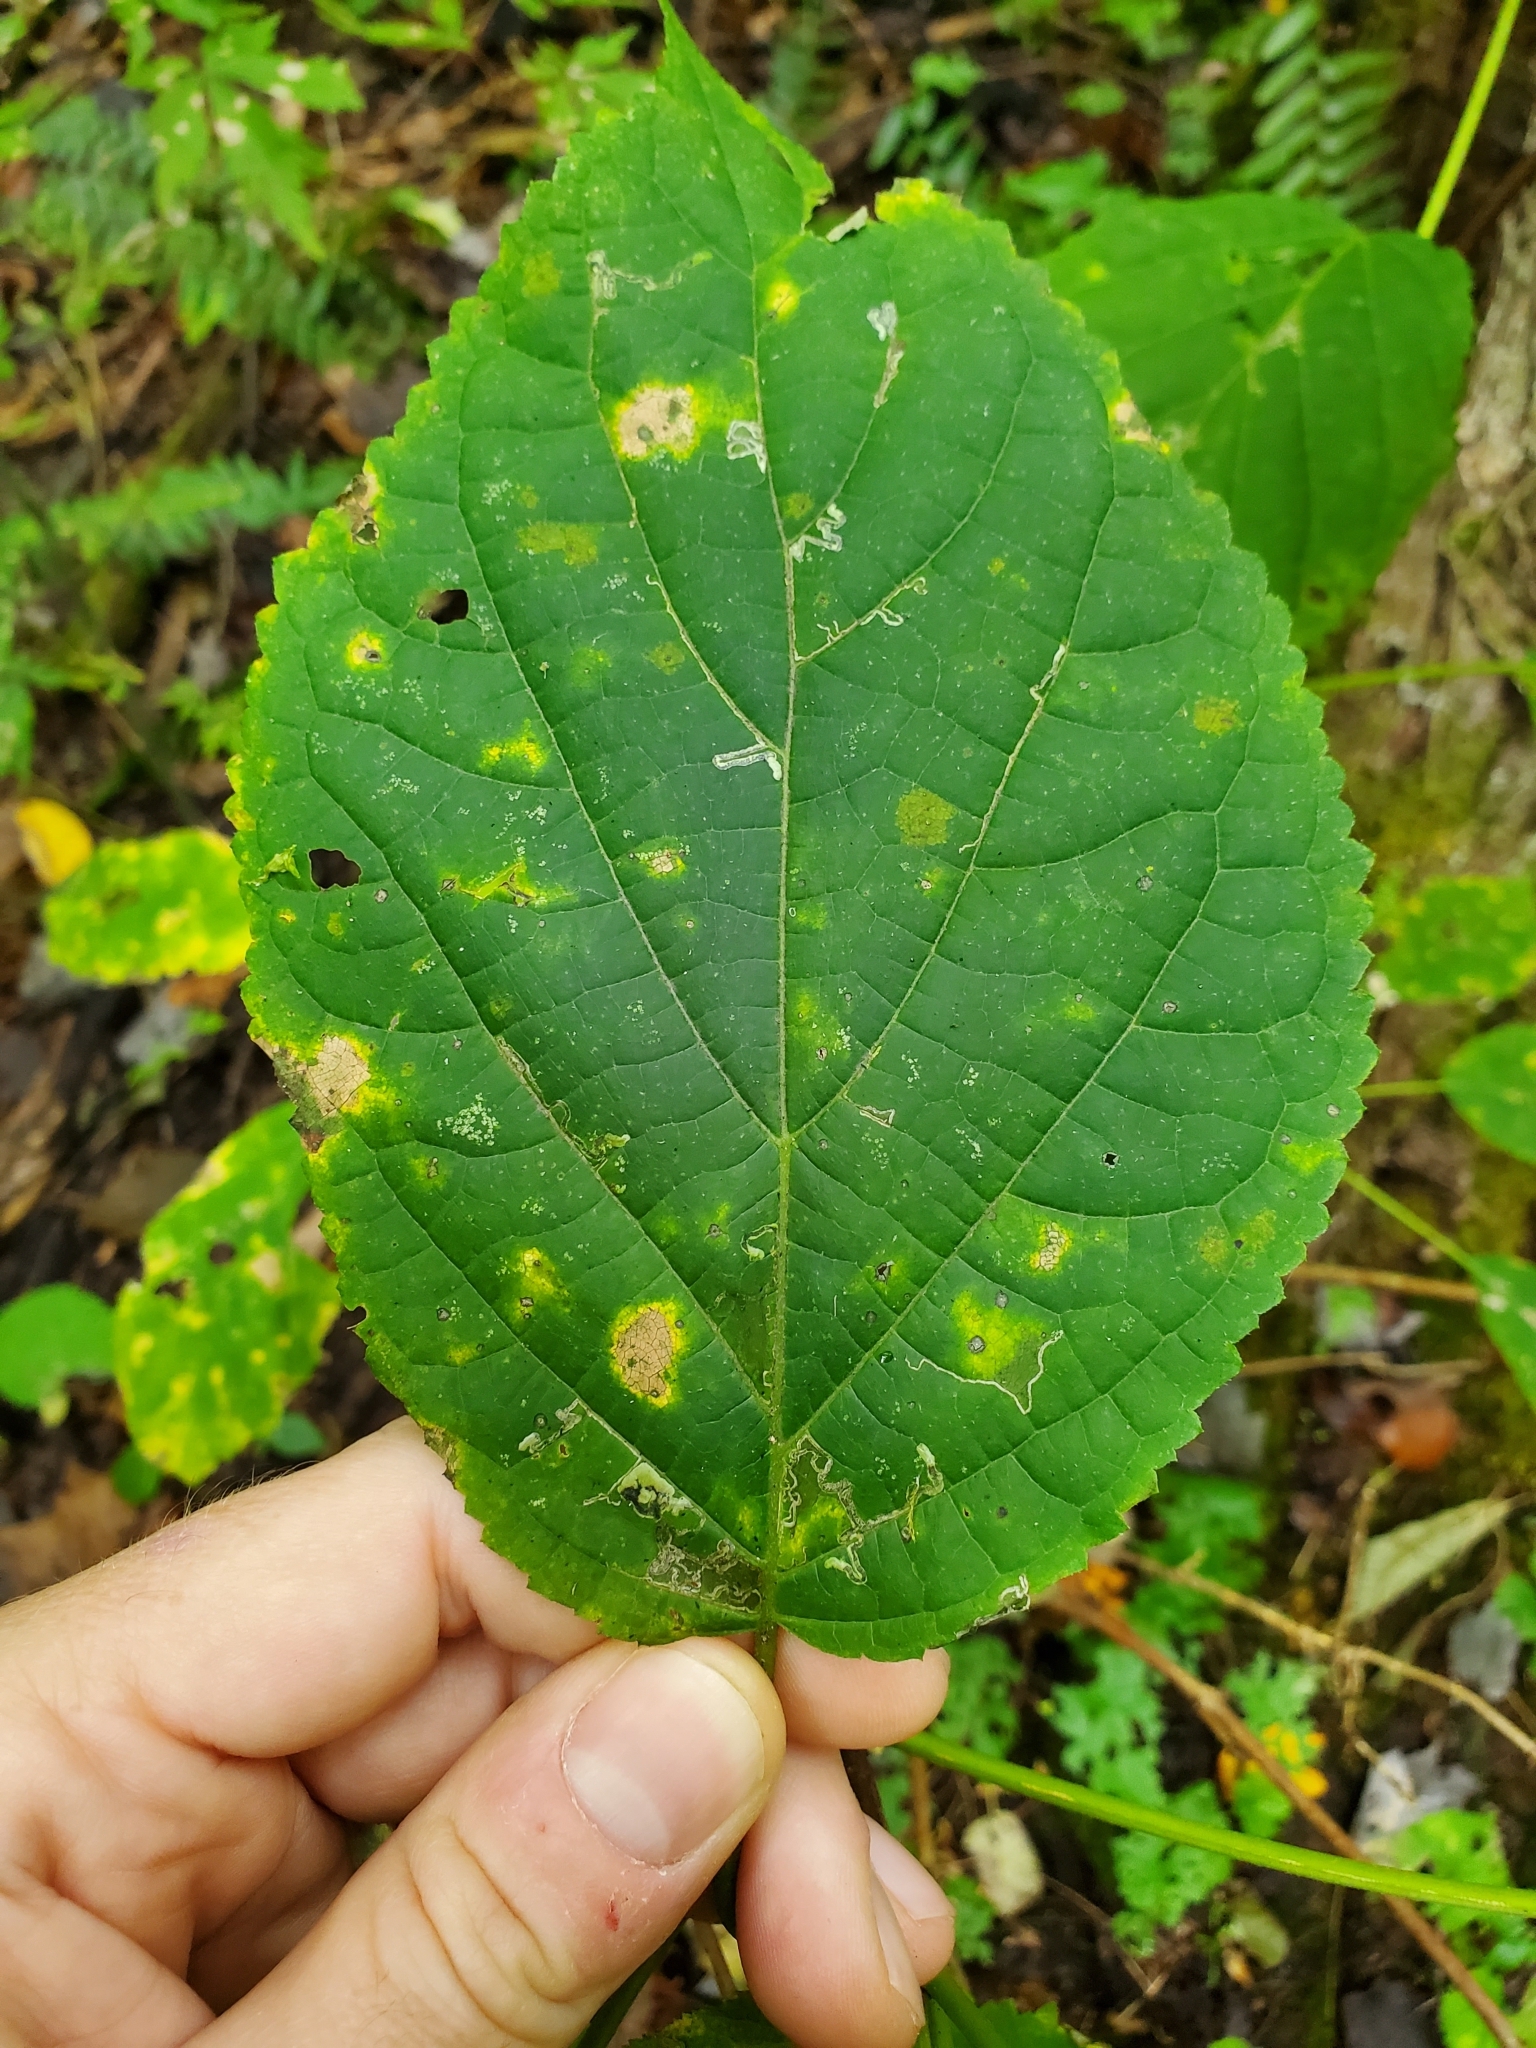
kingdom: Animalia
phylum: Arthropoda
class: Insecta
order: Lepidoptera
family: Heliozelidae
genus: Aspilanta
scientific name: Aspilanta hydrangaeella
